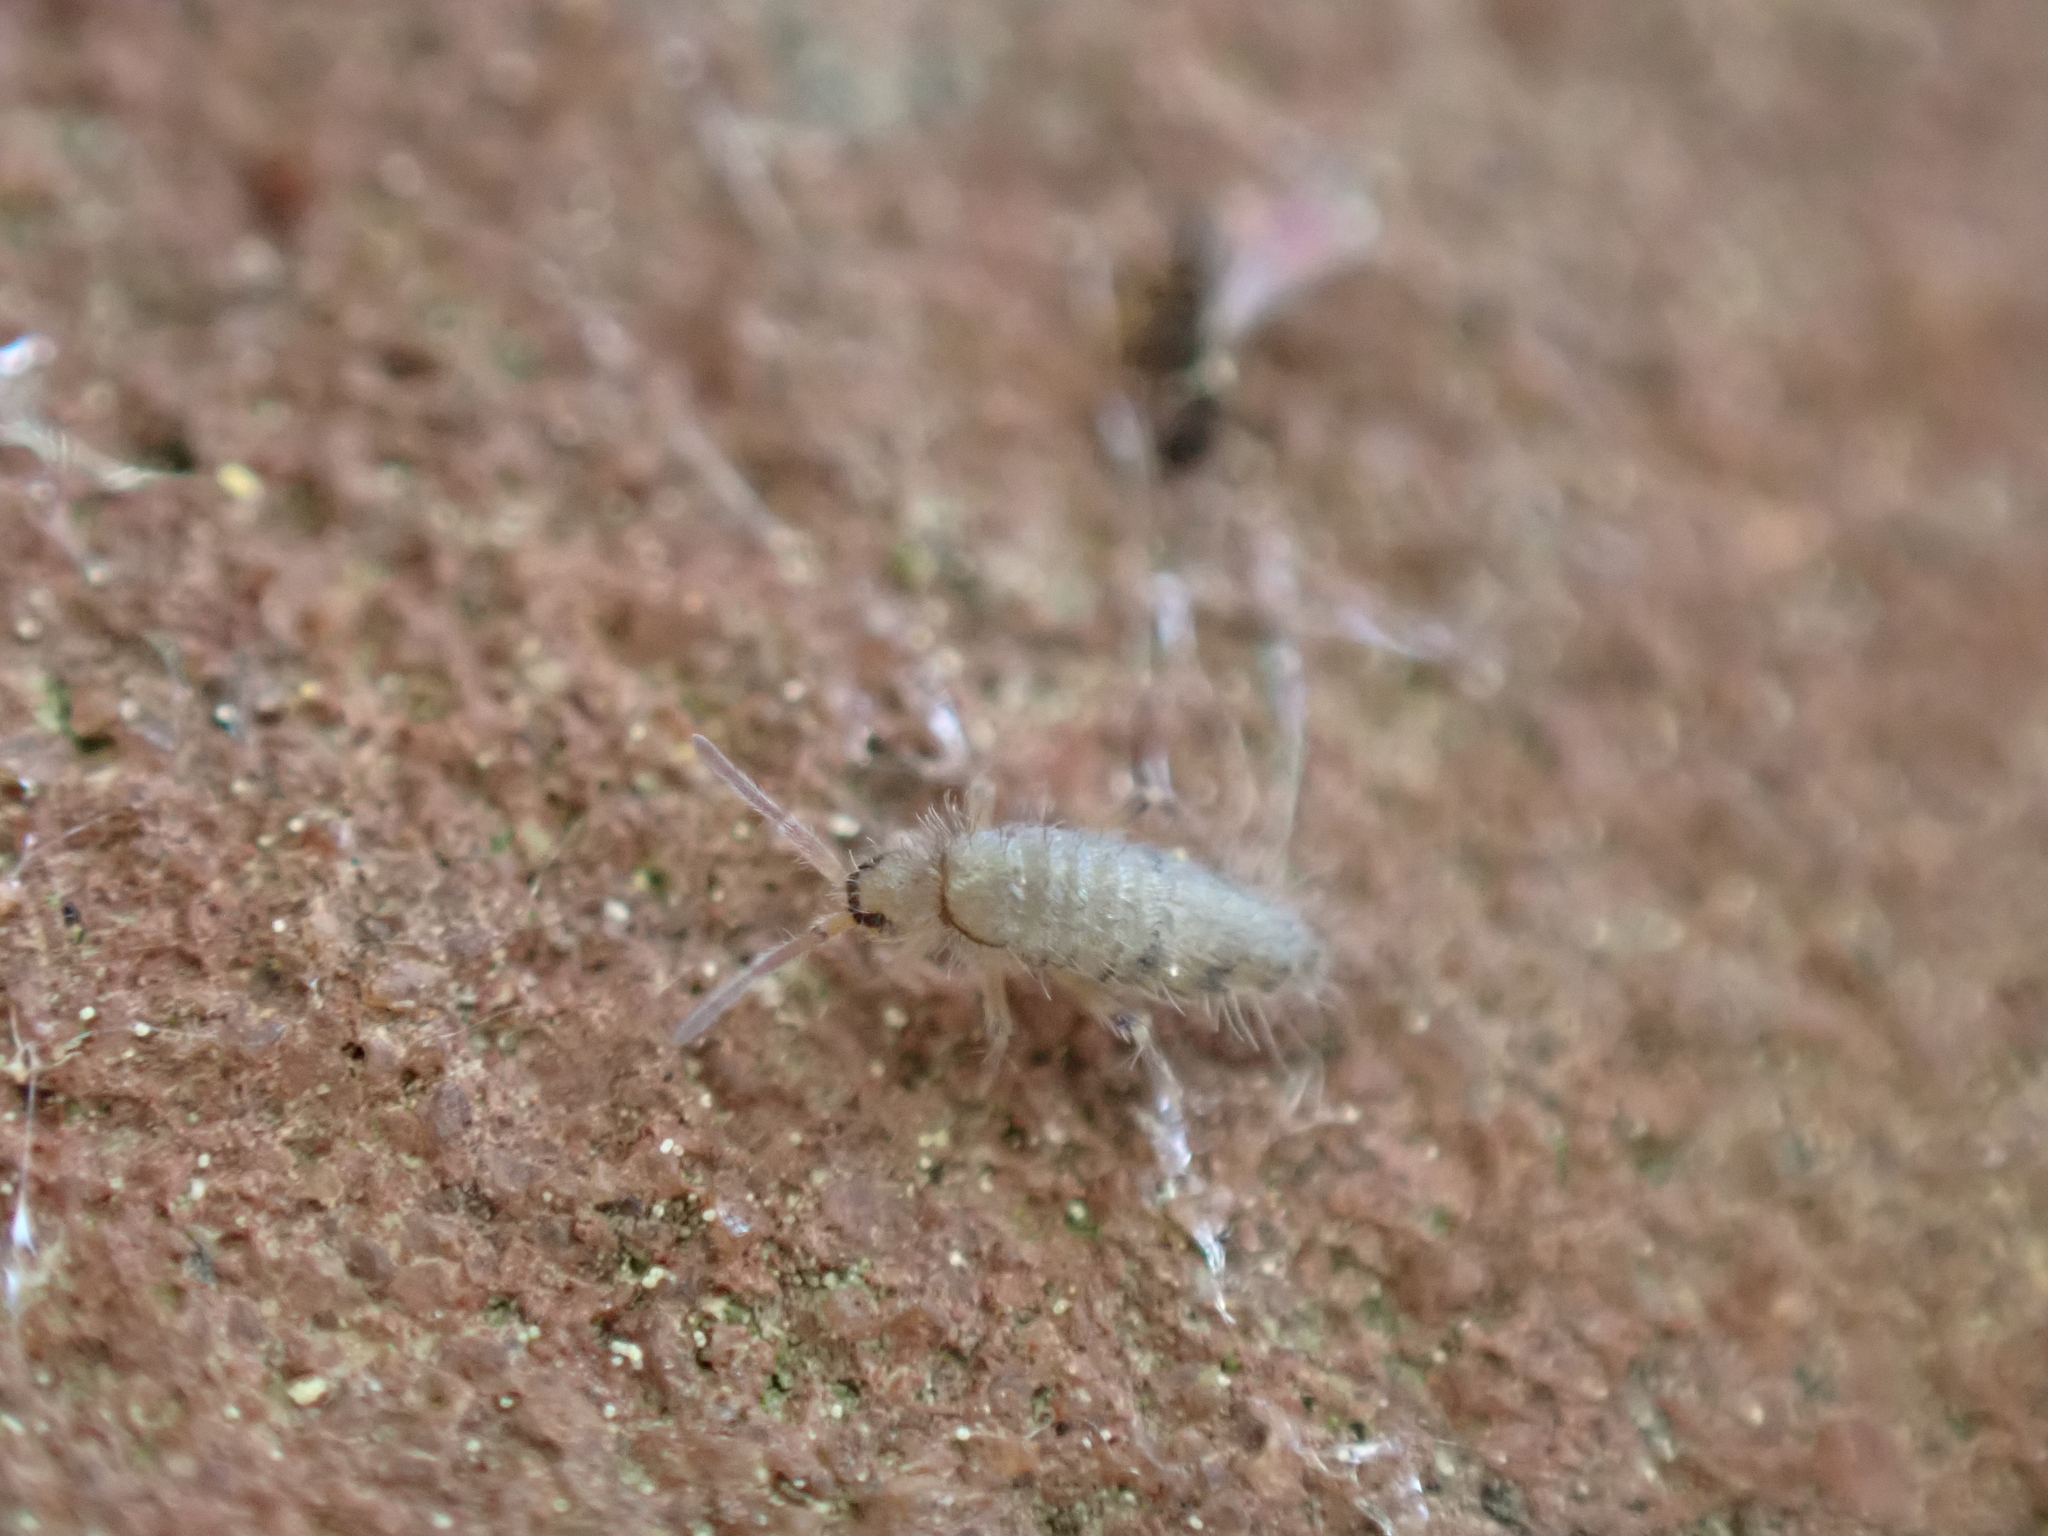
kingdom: Animalia
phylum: Arthropoda
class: Collembola
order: Entomobryomorpha
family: Entomobryidae
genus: Willowsia
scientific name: Willowsia nigromaculata
